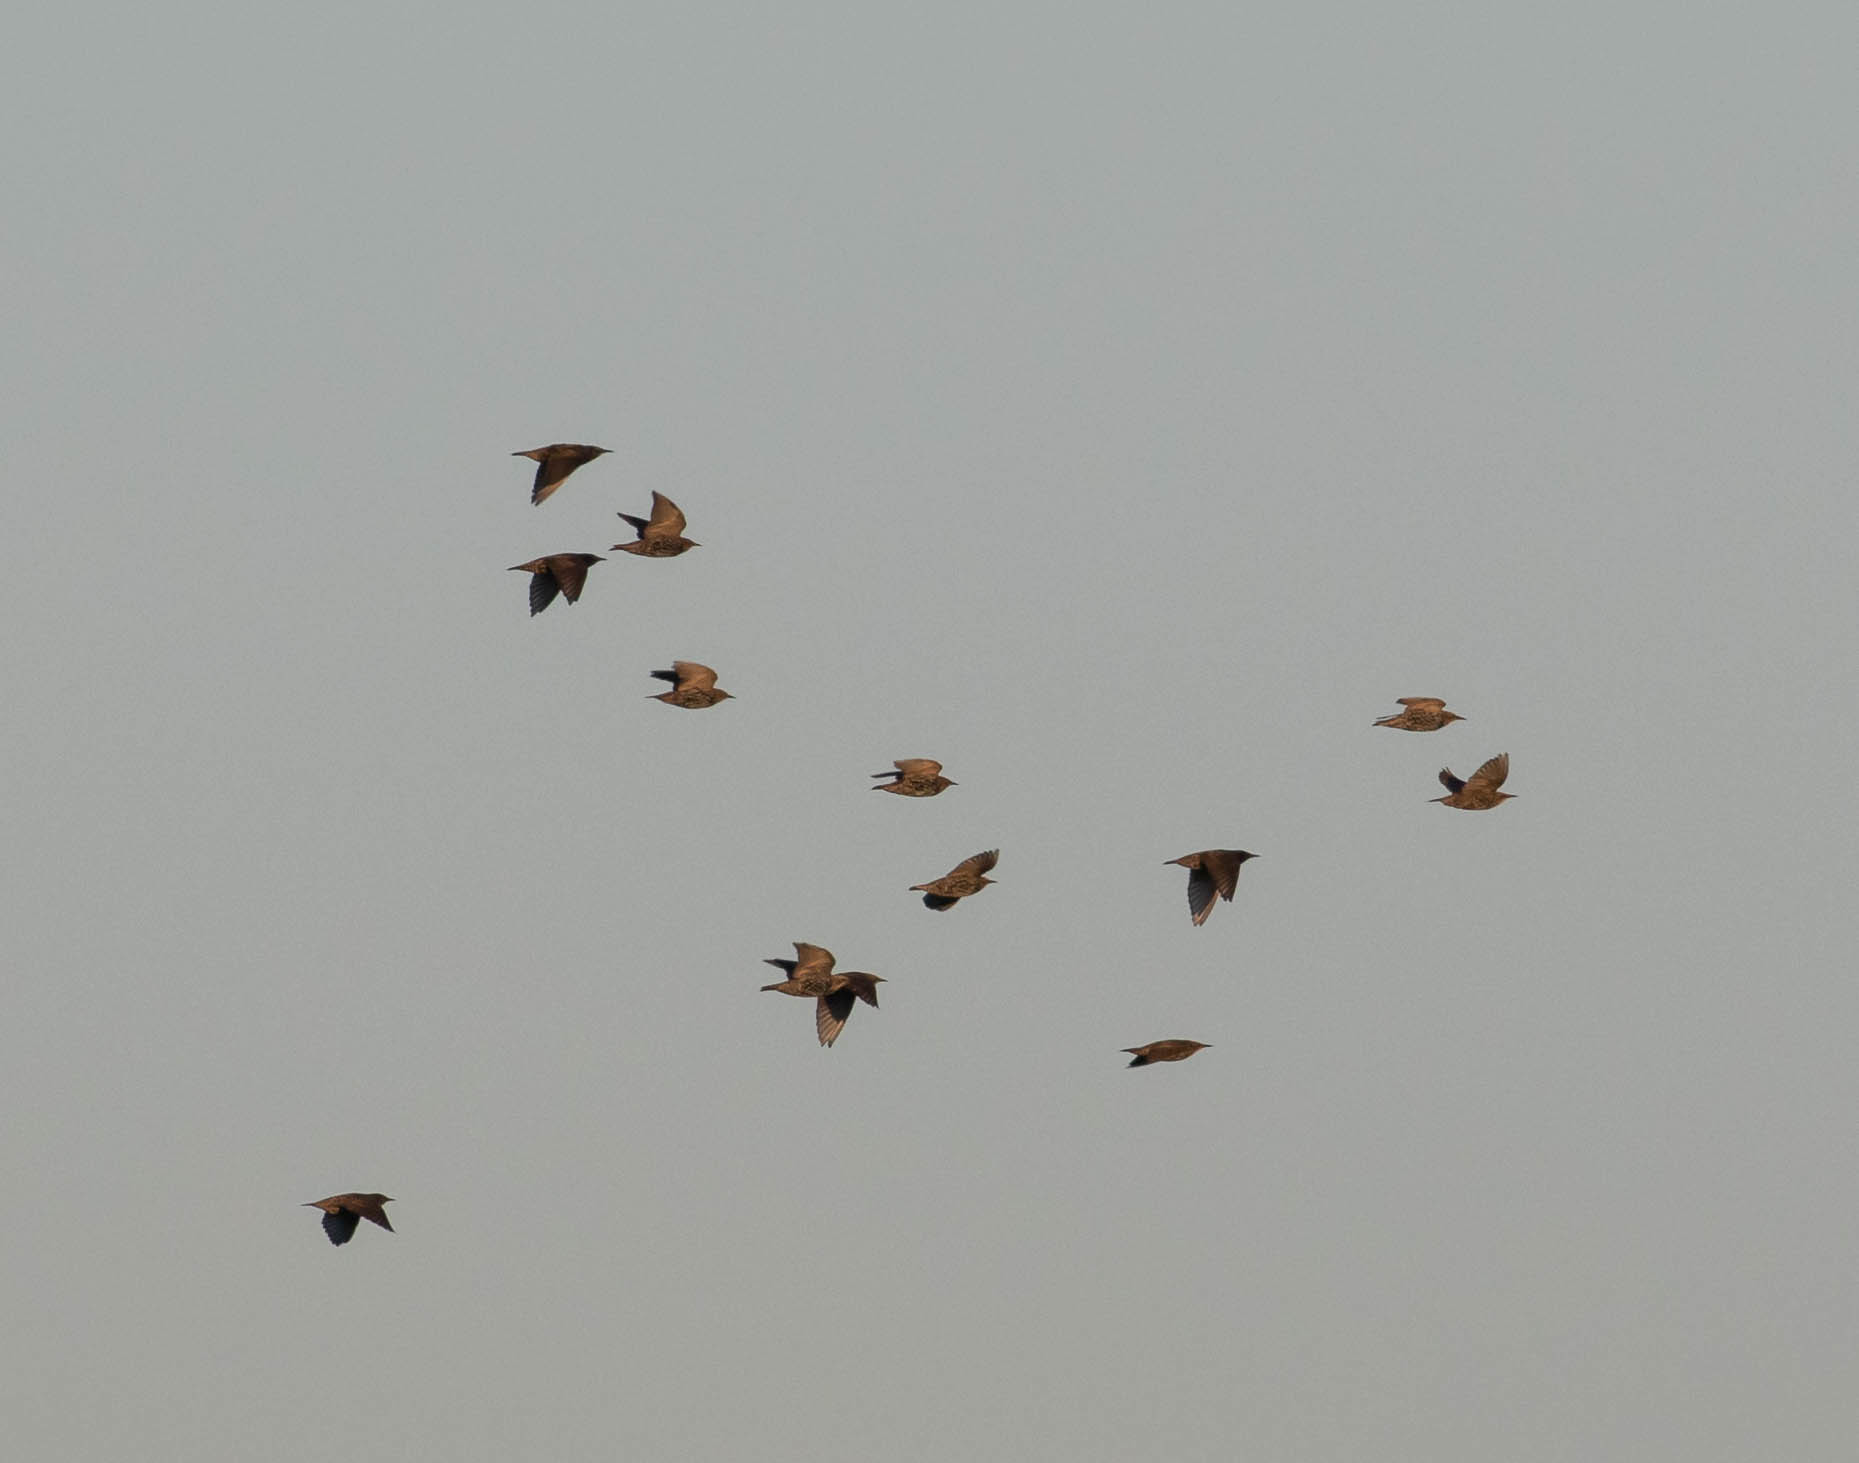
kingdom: Animalia
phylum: Chordata
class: Aves
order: Passeriformes
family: Sturnidae
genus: Sturnus
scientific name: Sturnus vulgaris
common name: Common starling
